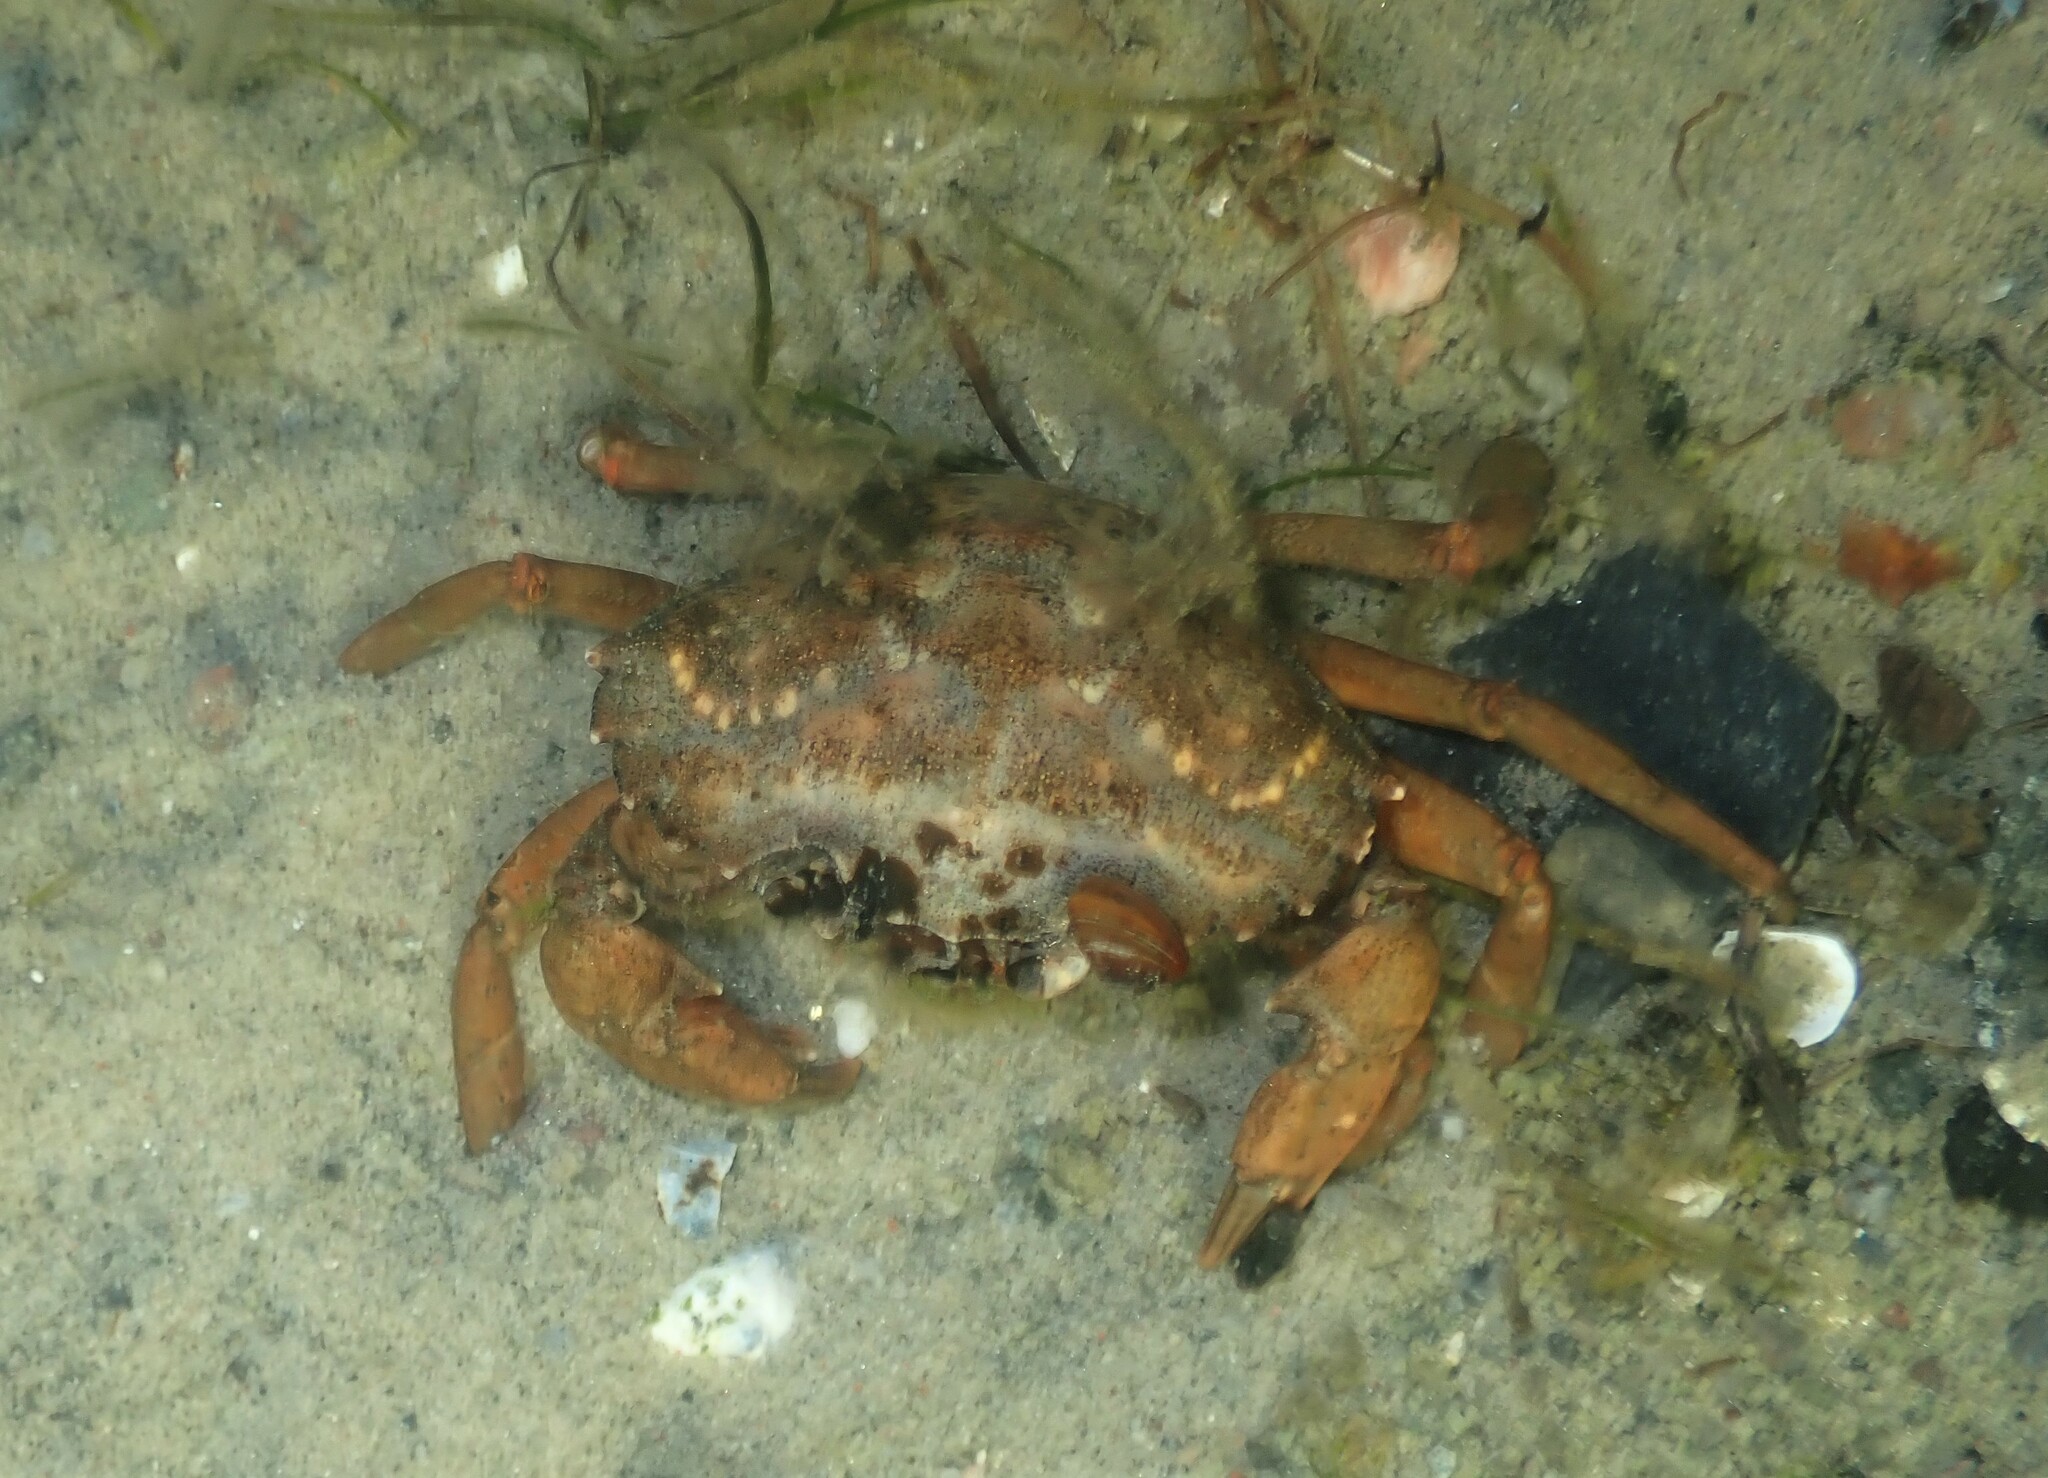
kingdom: Animalia
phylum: Arthropoda
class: Malacostraca
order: Decapoda
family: Carcinidae
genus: Carcinus
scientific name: Carcinus maenas
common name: European green crab
